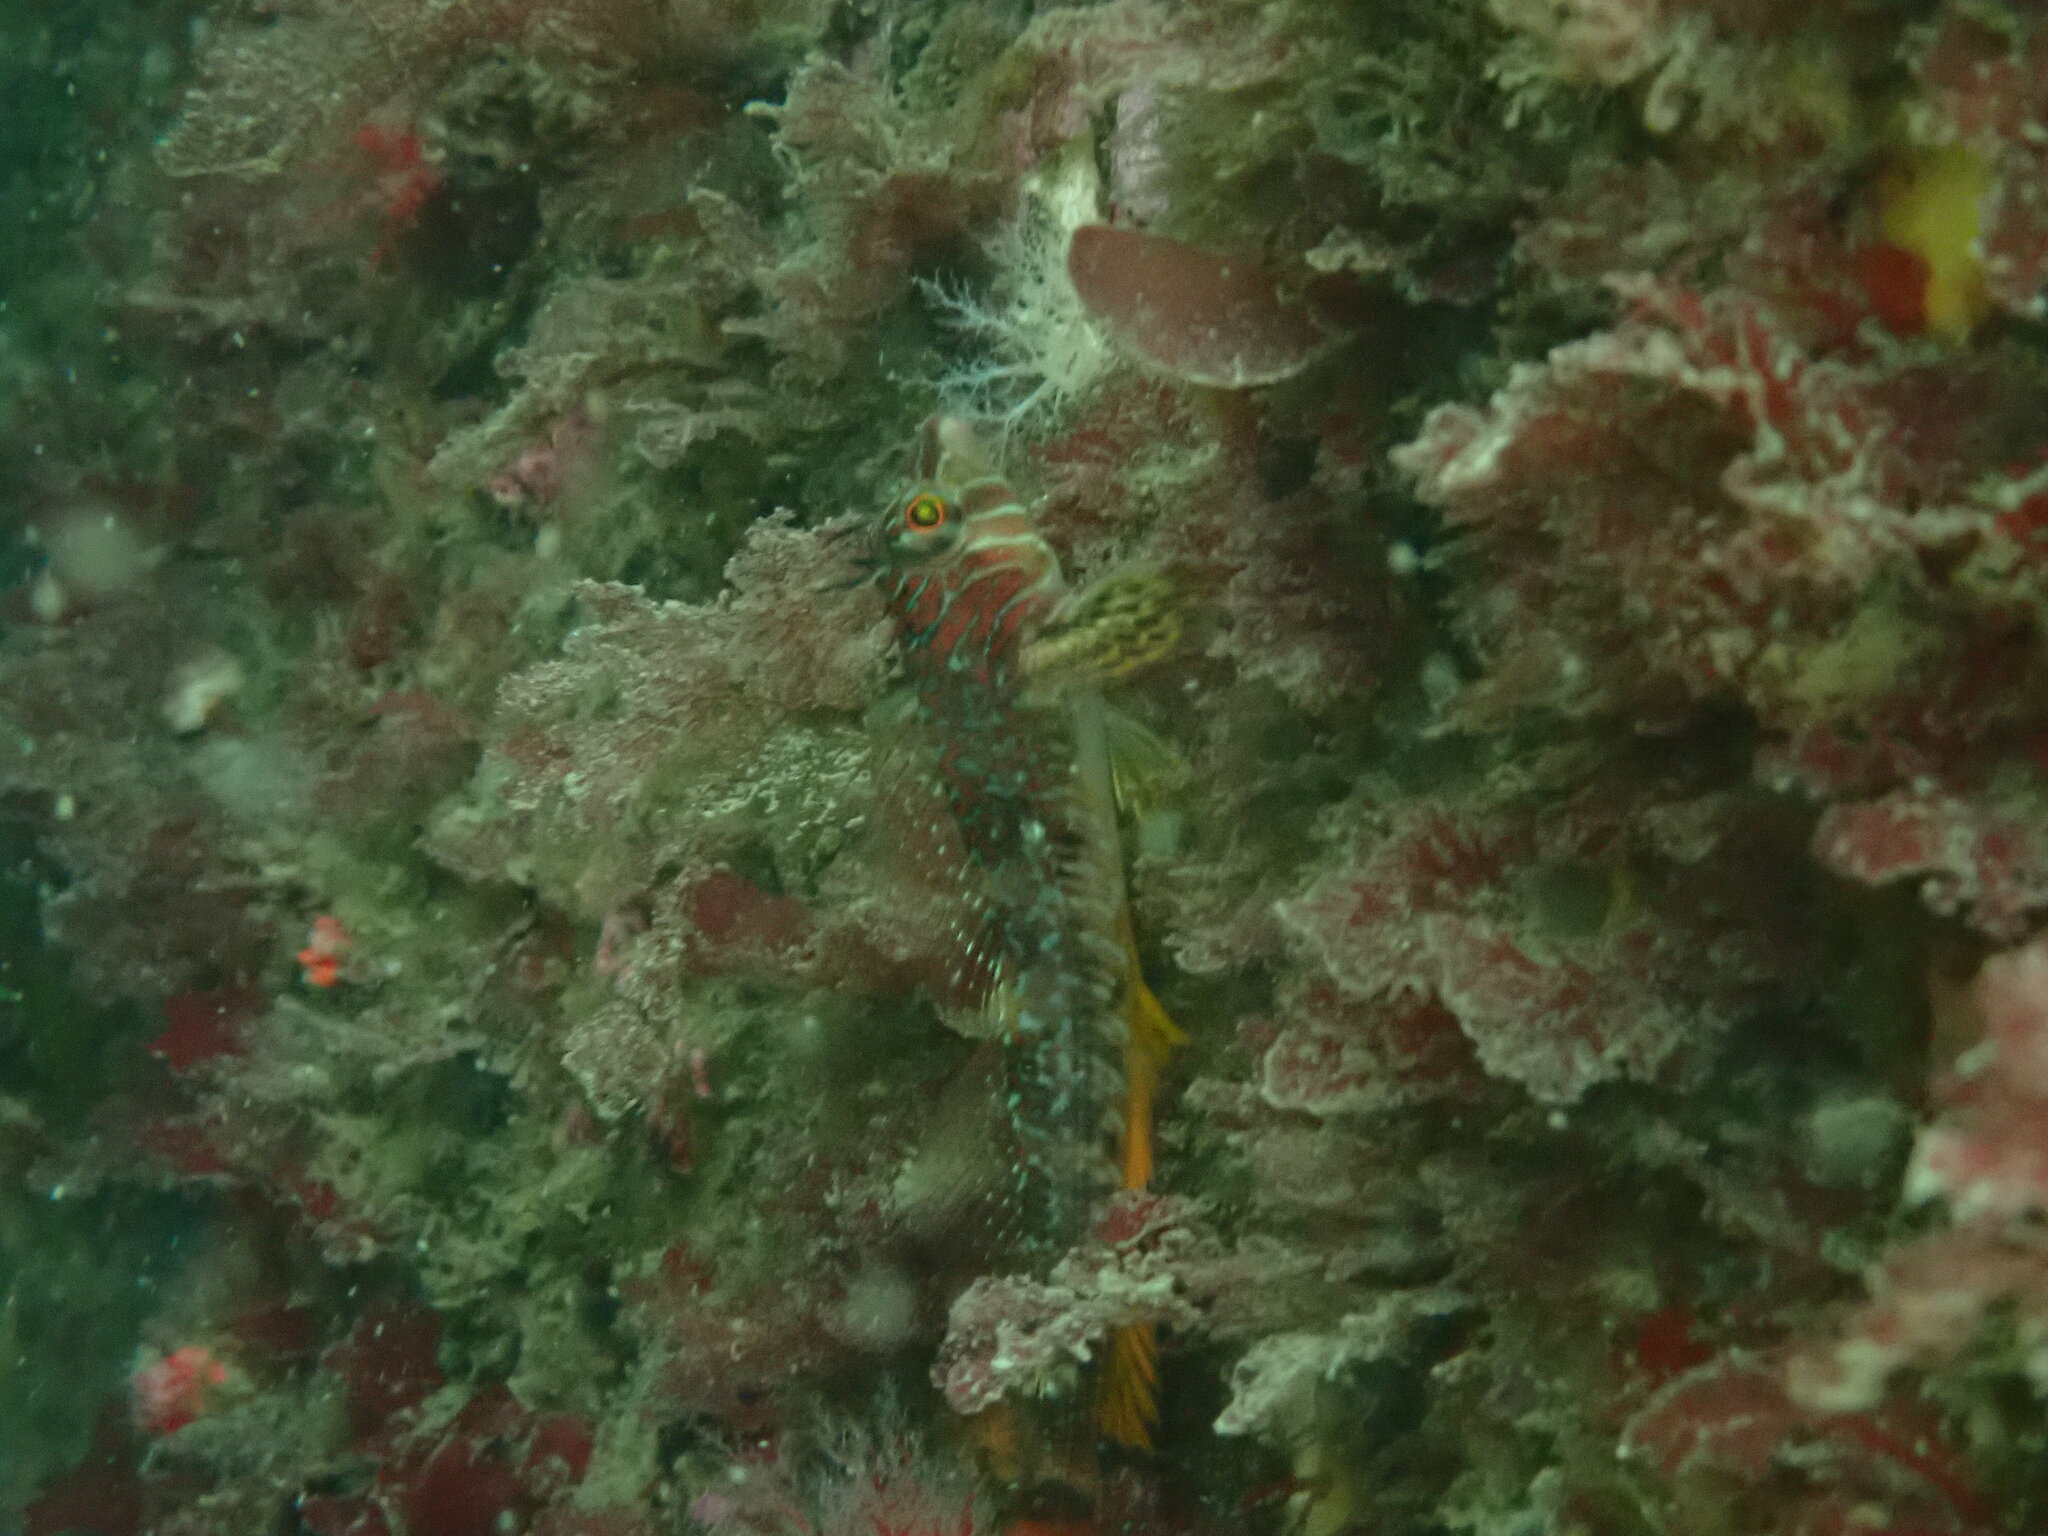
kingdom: Animalia
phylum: Chordata
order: Scorpaeniformes
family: Cottidae
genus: Jordania
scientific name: Jordania zonope
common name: Longfin sculpin
